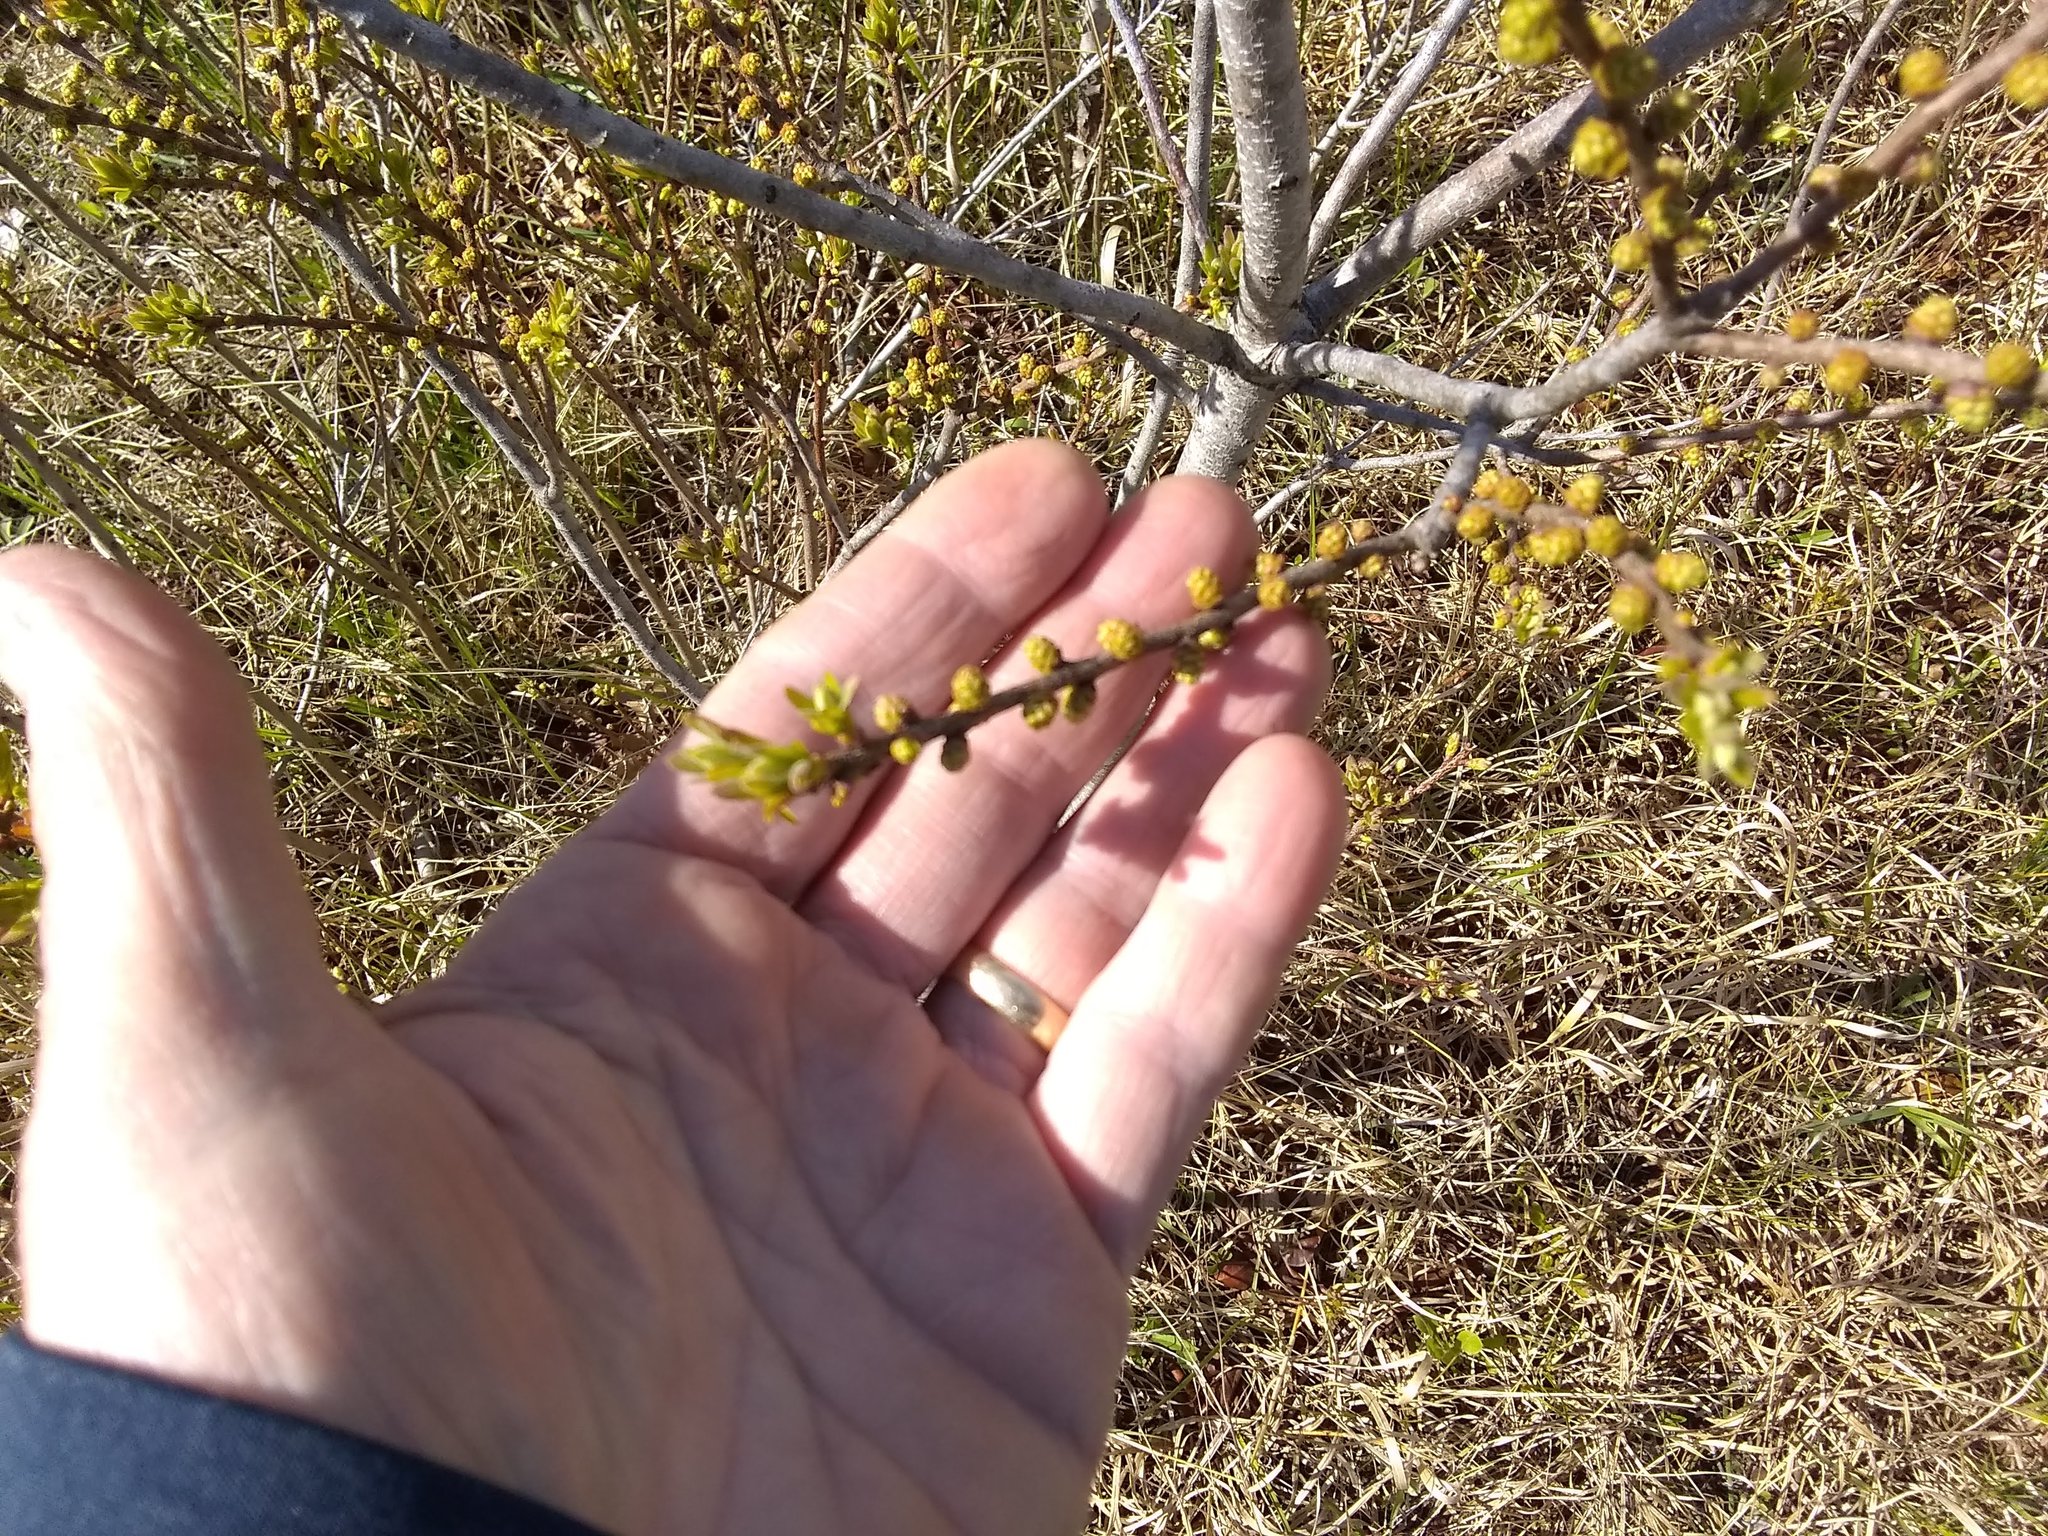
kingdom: Plantae
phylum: Tracheophyta
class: Magnoliopsida
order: Fagales
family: Myricaceae
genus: Morella
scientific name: Morella pensylvanica
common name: Northern bayberry
